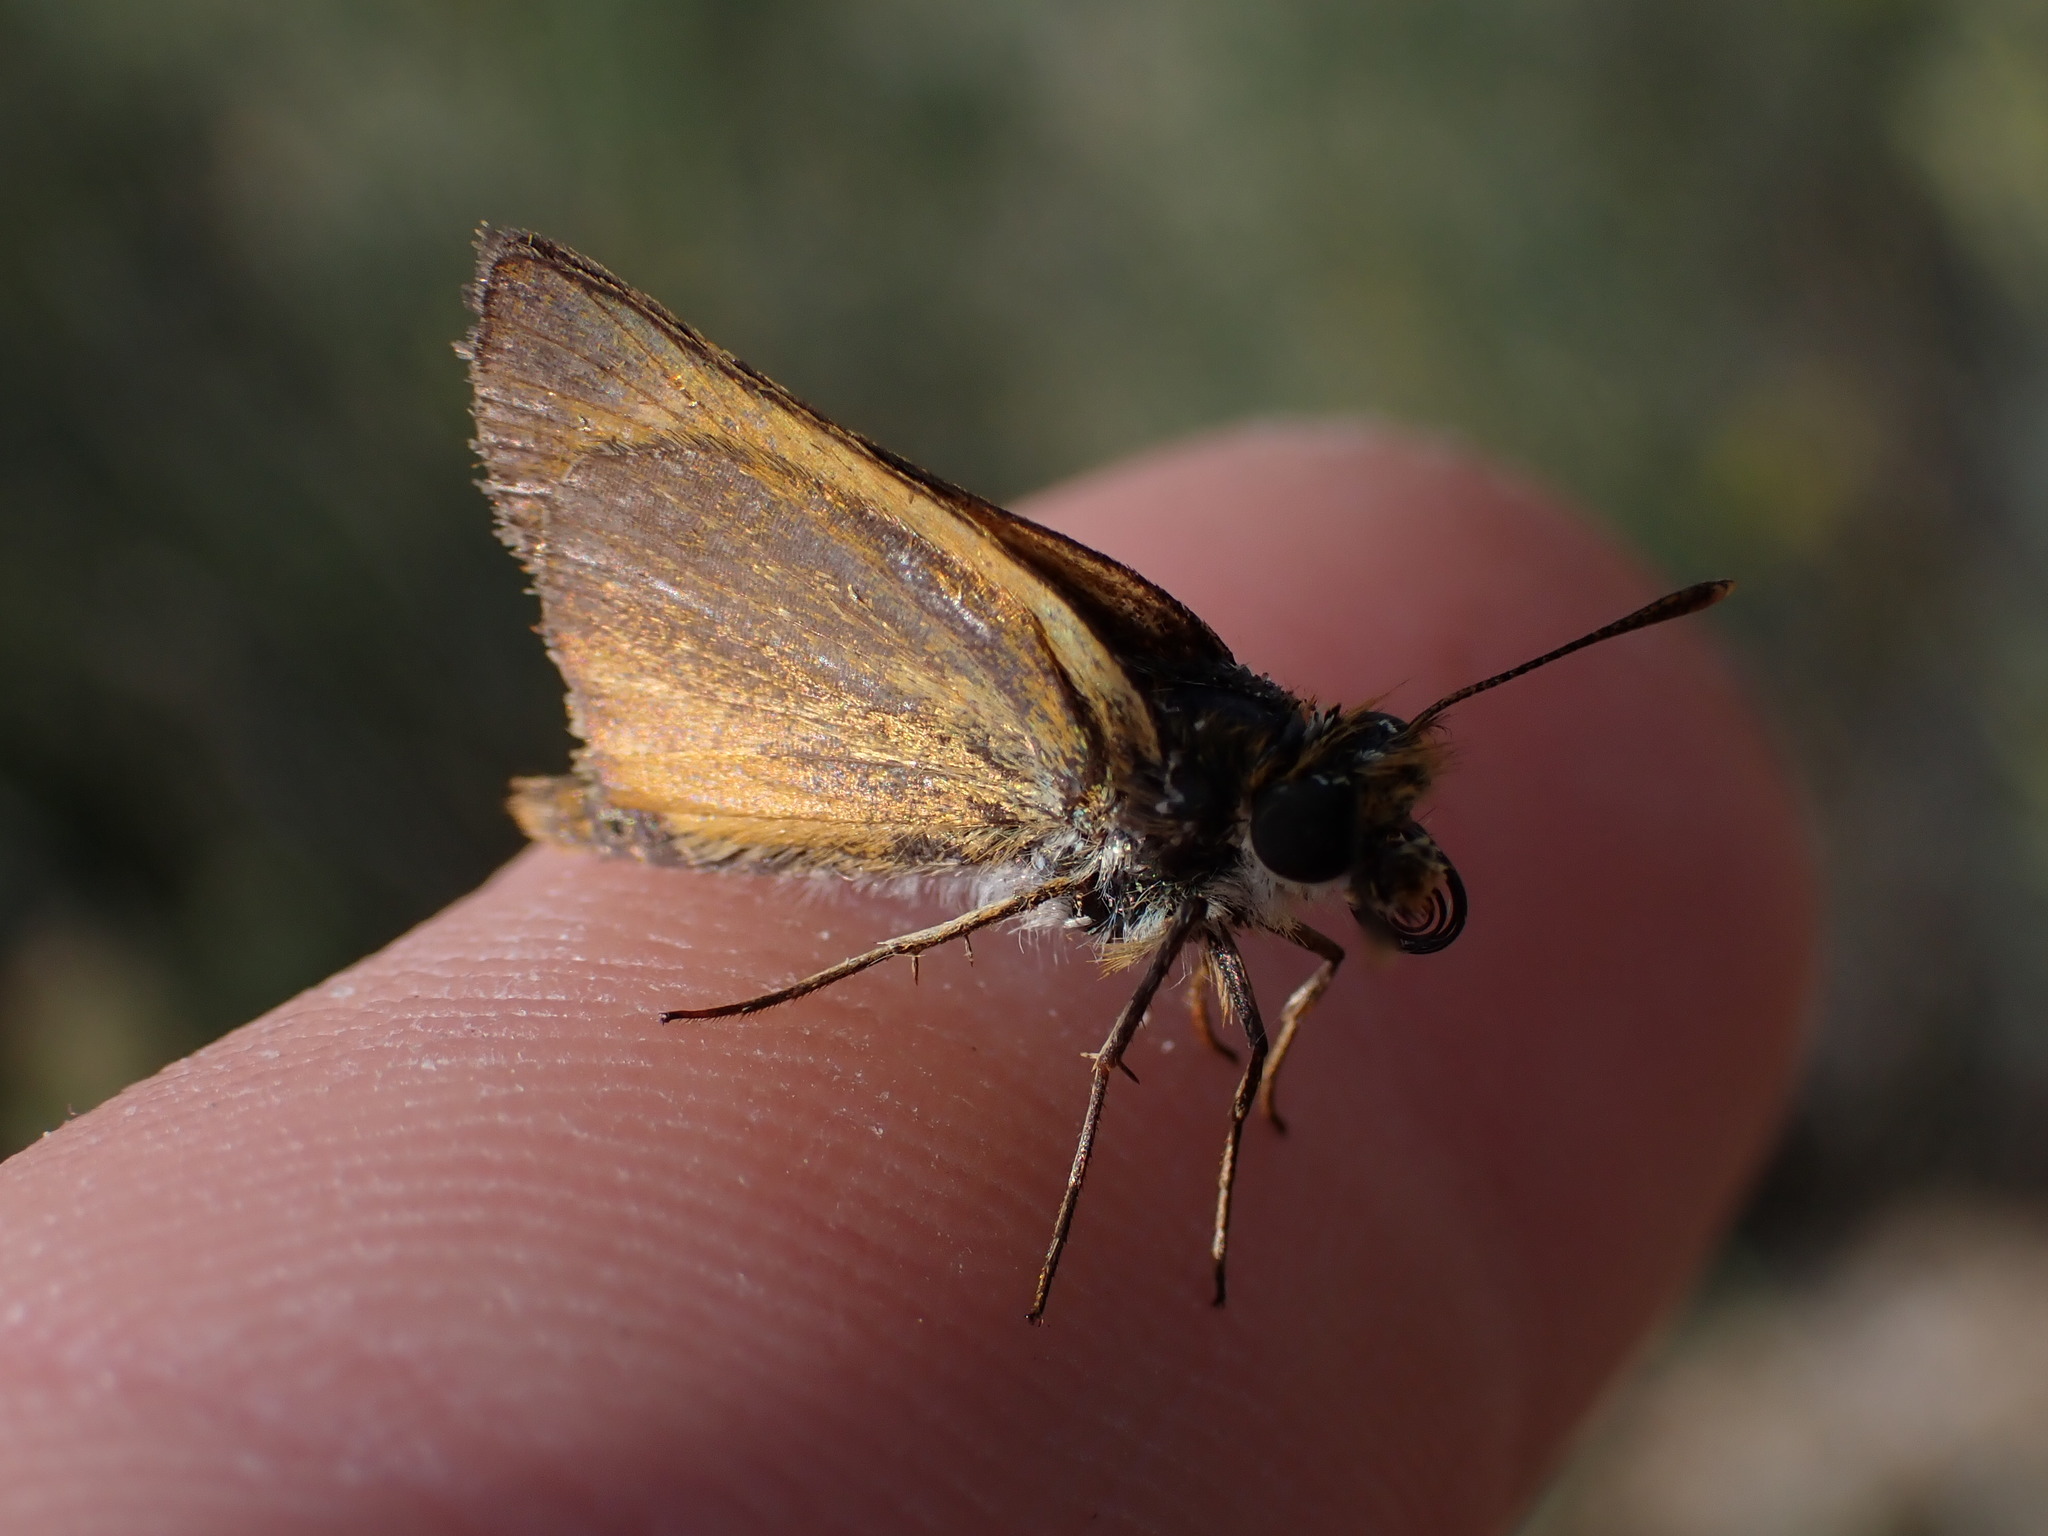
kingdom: Animalia
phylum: Arthropoda
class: Insecta
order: Lepidoptera
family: Hesperiidae
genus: Thymelicus
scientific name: Thymelicus acteon
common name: Lulworth skipper
